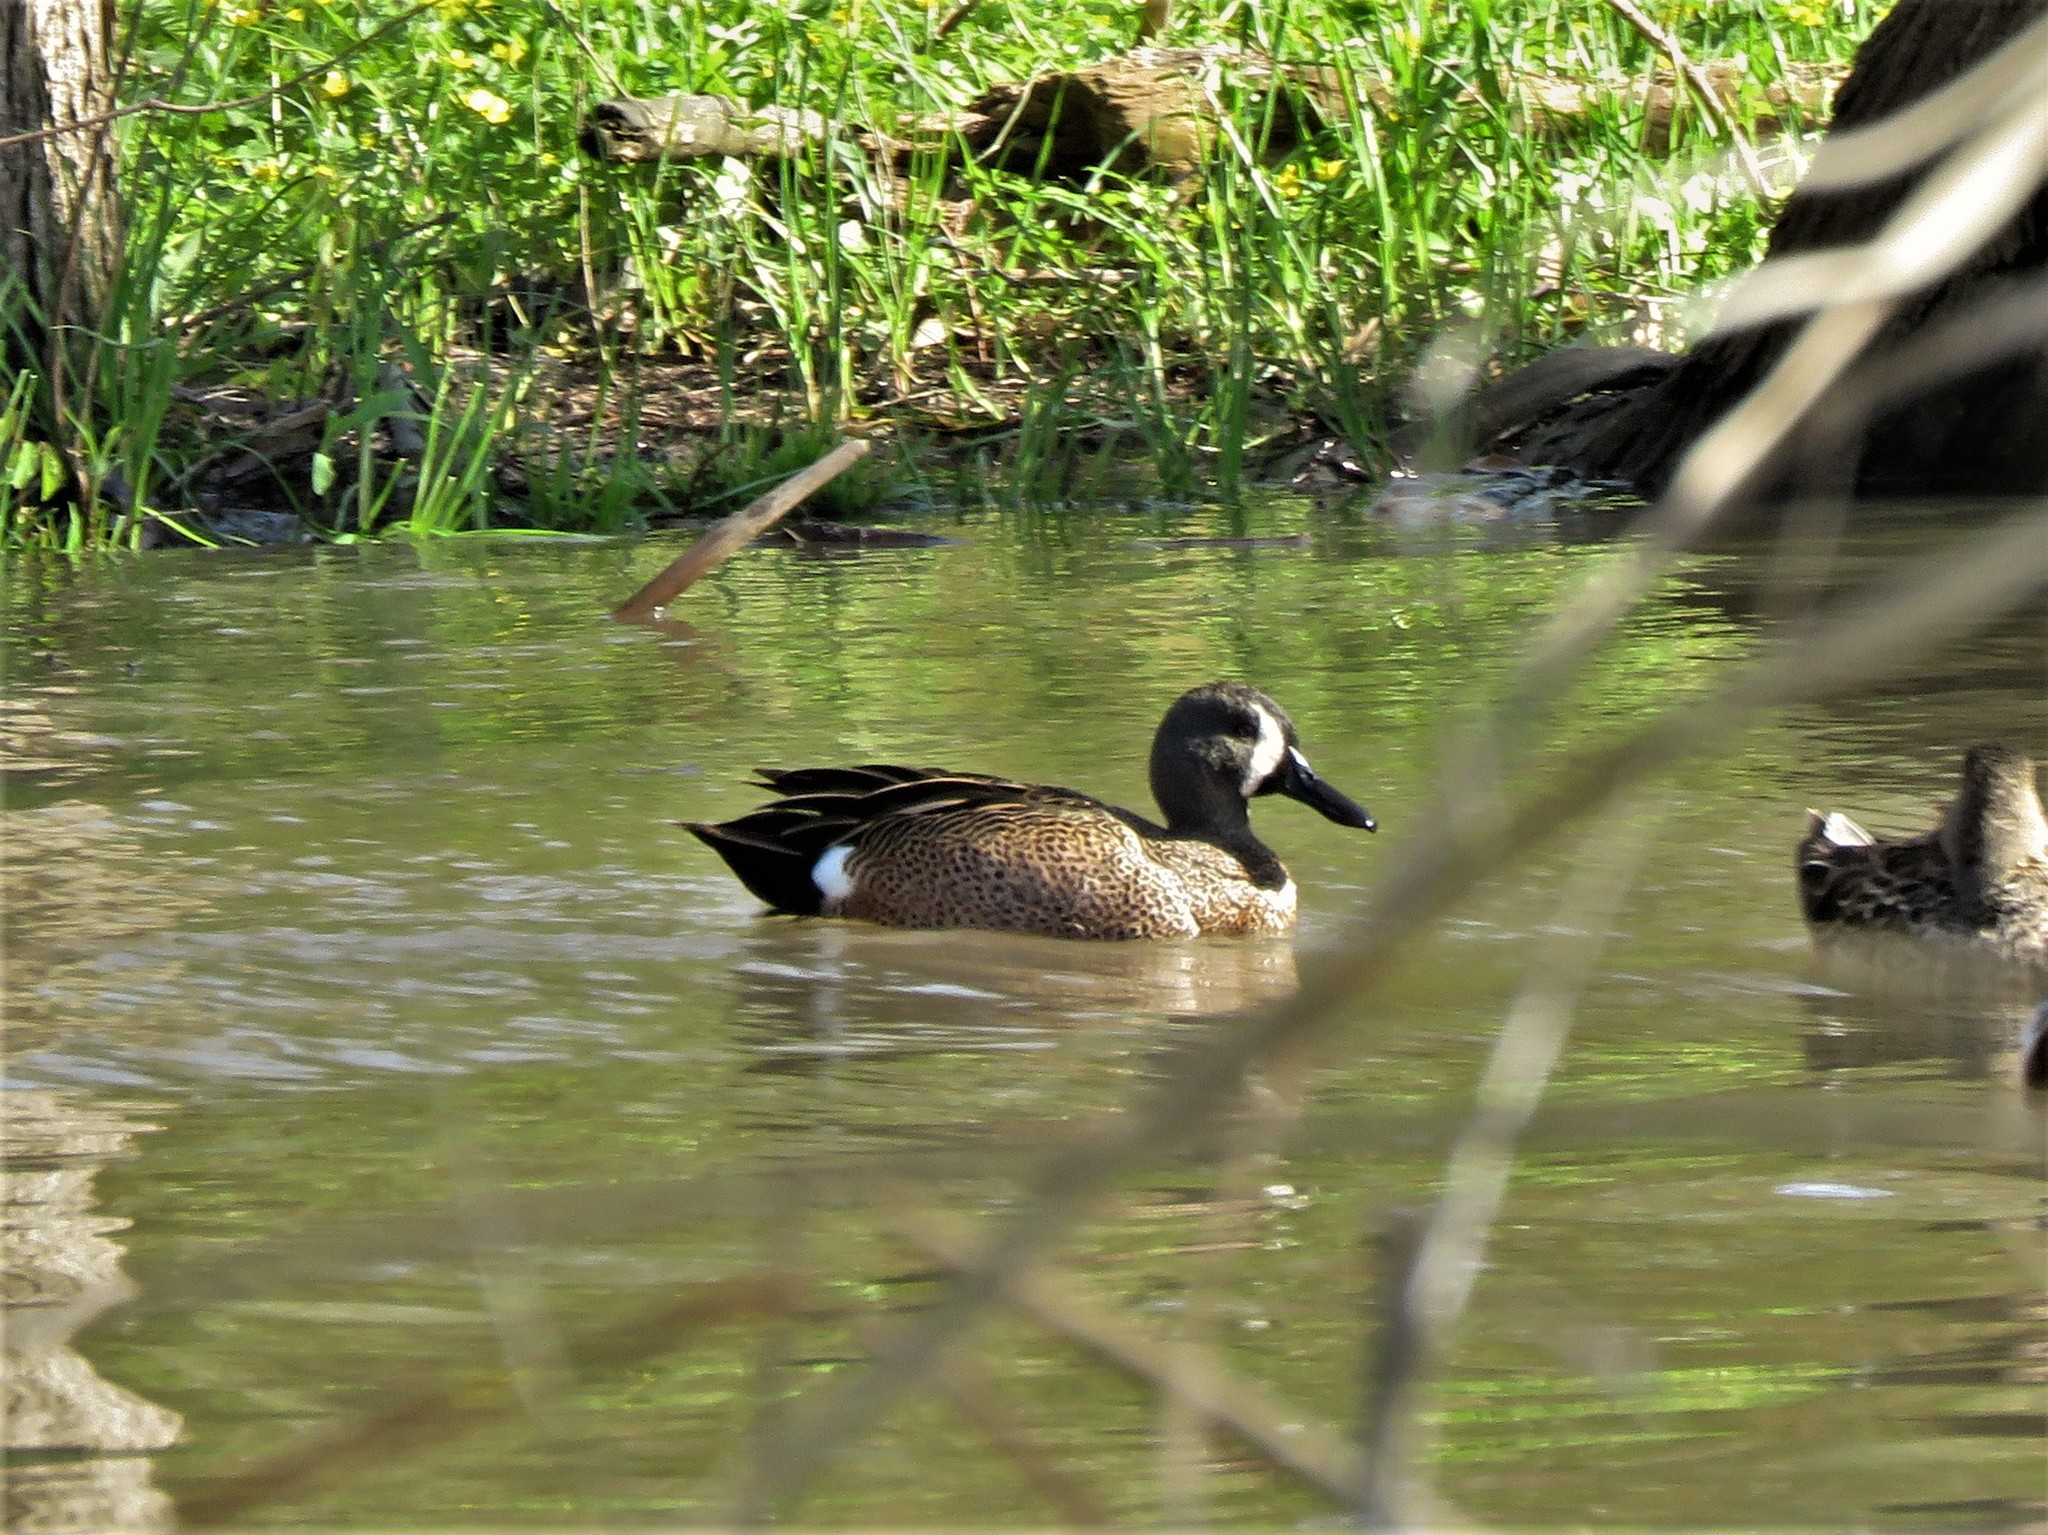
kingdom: Animalia
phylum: Chordata
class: Aves
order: Anseriformes
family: Anatidae
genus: Spatula
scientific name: Spatula discors
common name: Blue-winged teal
